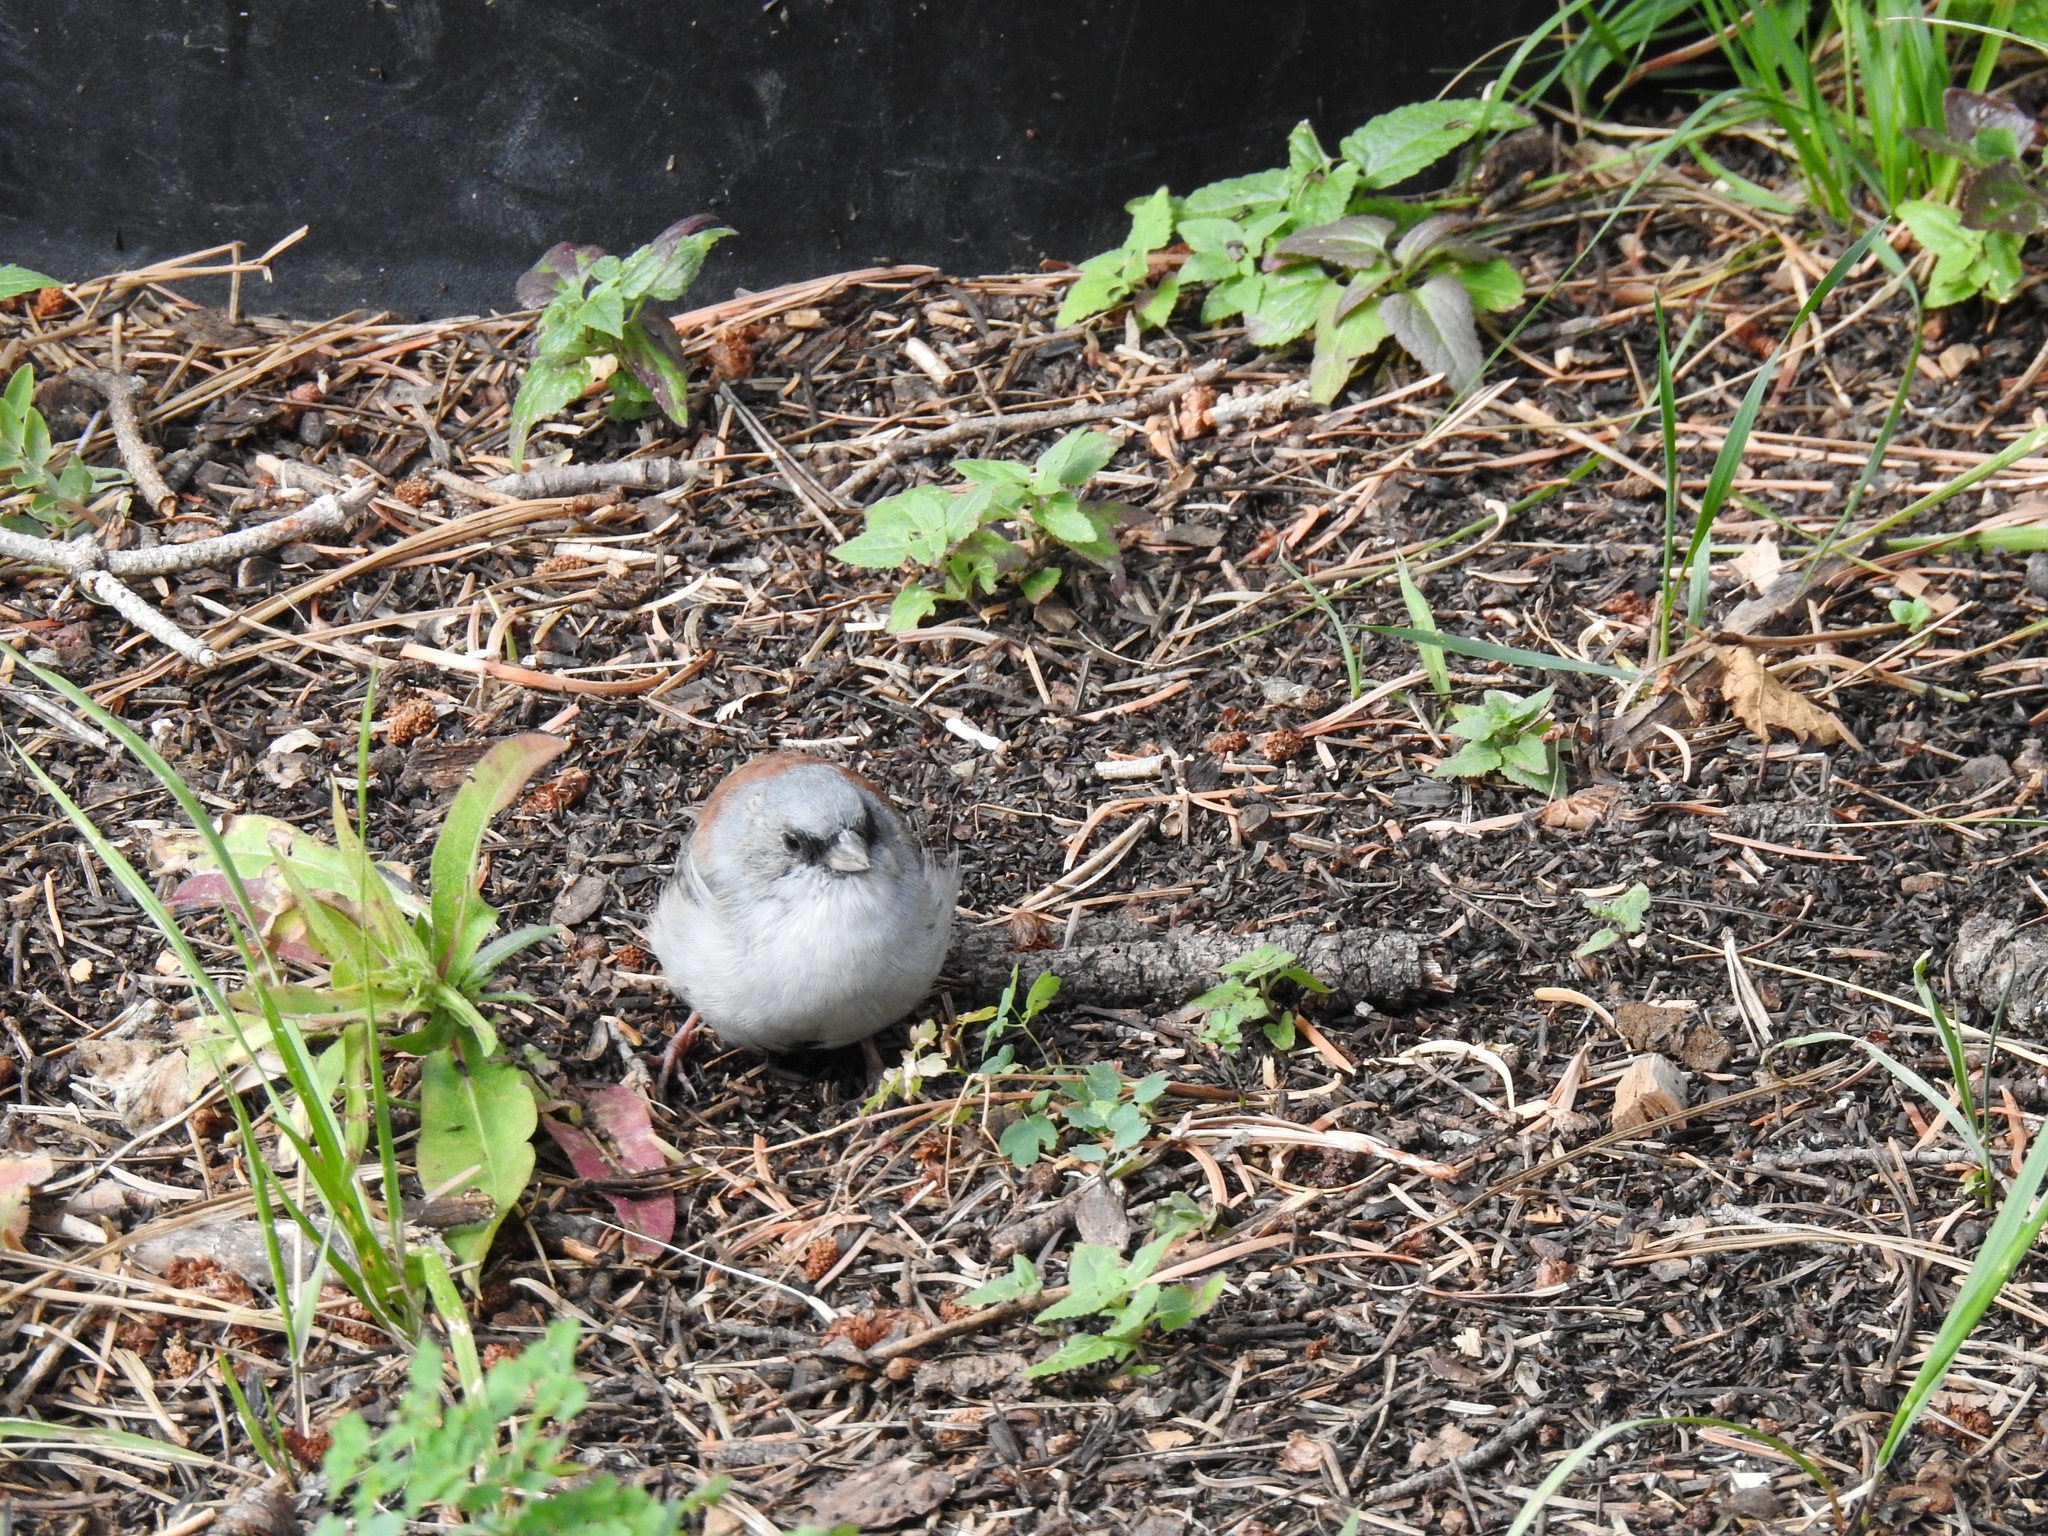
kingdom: Animalia
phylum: Chordata
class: Aves
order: Passeriformes
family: Passerellidae
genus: Junco
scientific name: Junco hyemalis
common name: Dark-eyed junco
